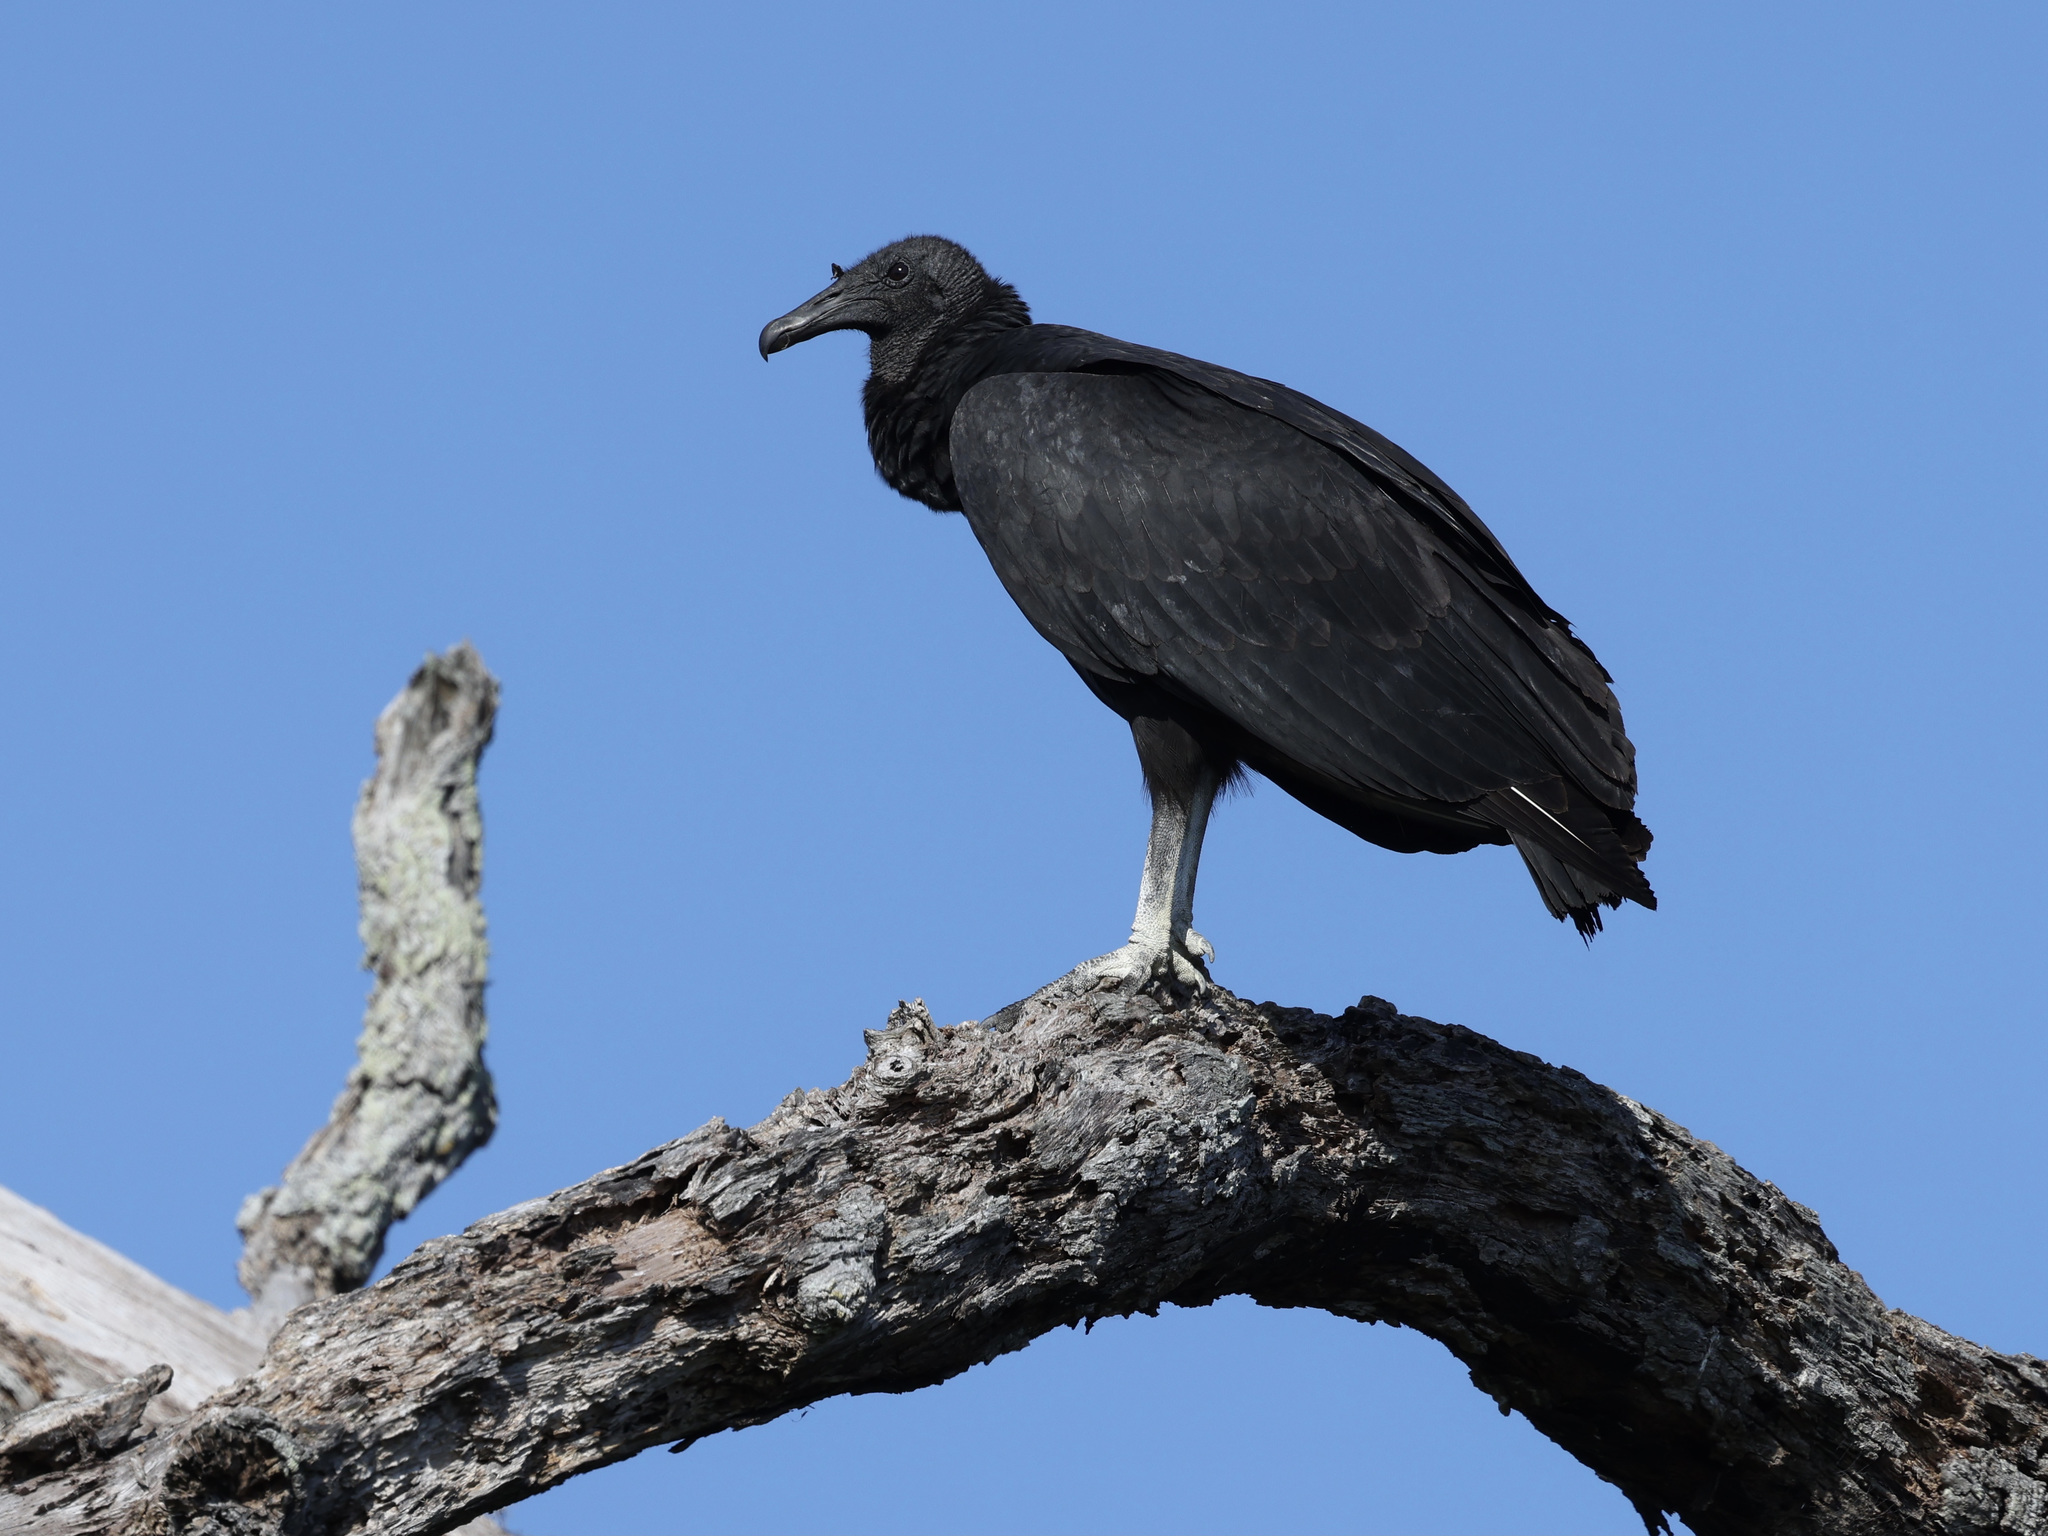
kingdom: Animalia
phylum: Chordata
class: Aves
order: Accipitriformes
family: Cathartidae
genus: Coragyps
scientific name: Coragyps atratus
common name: Black vulture
